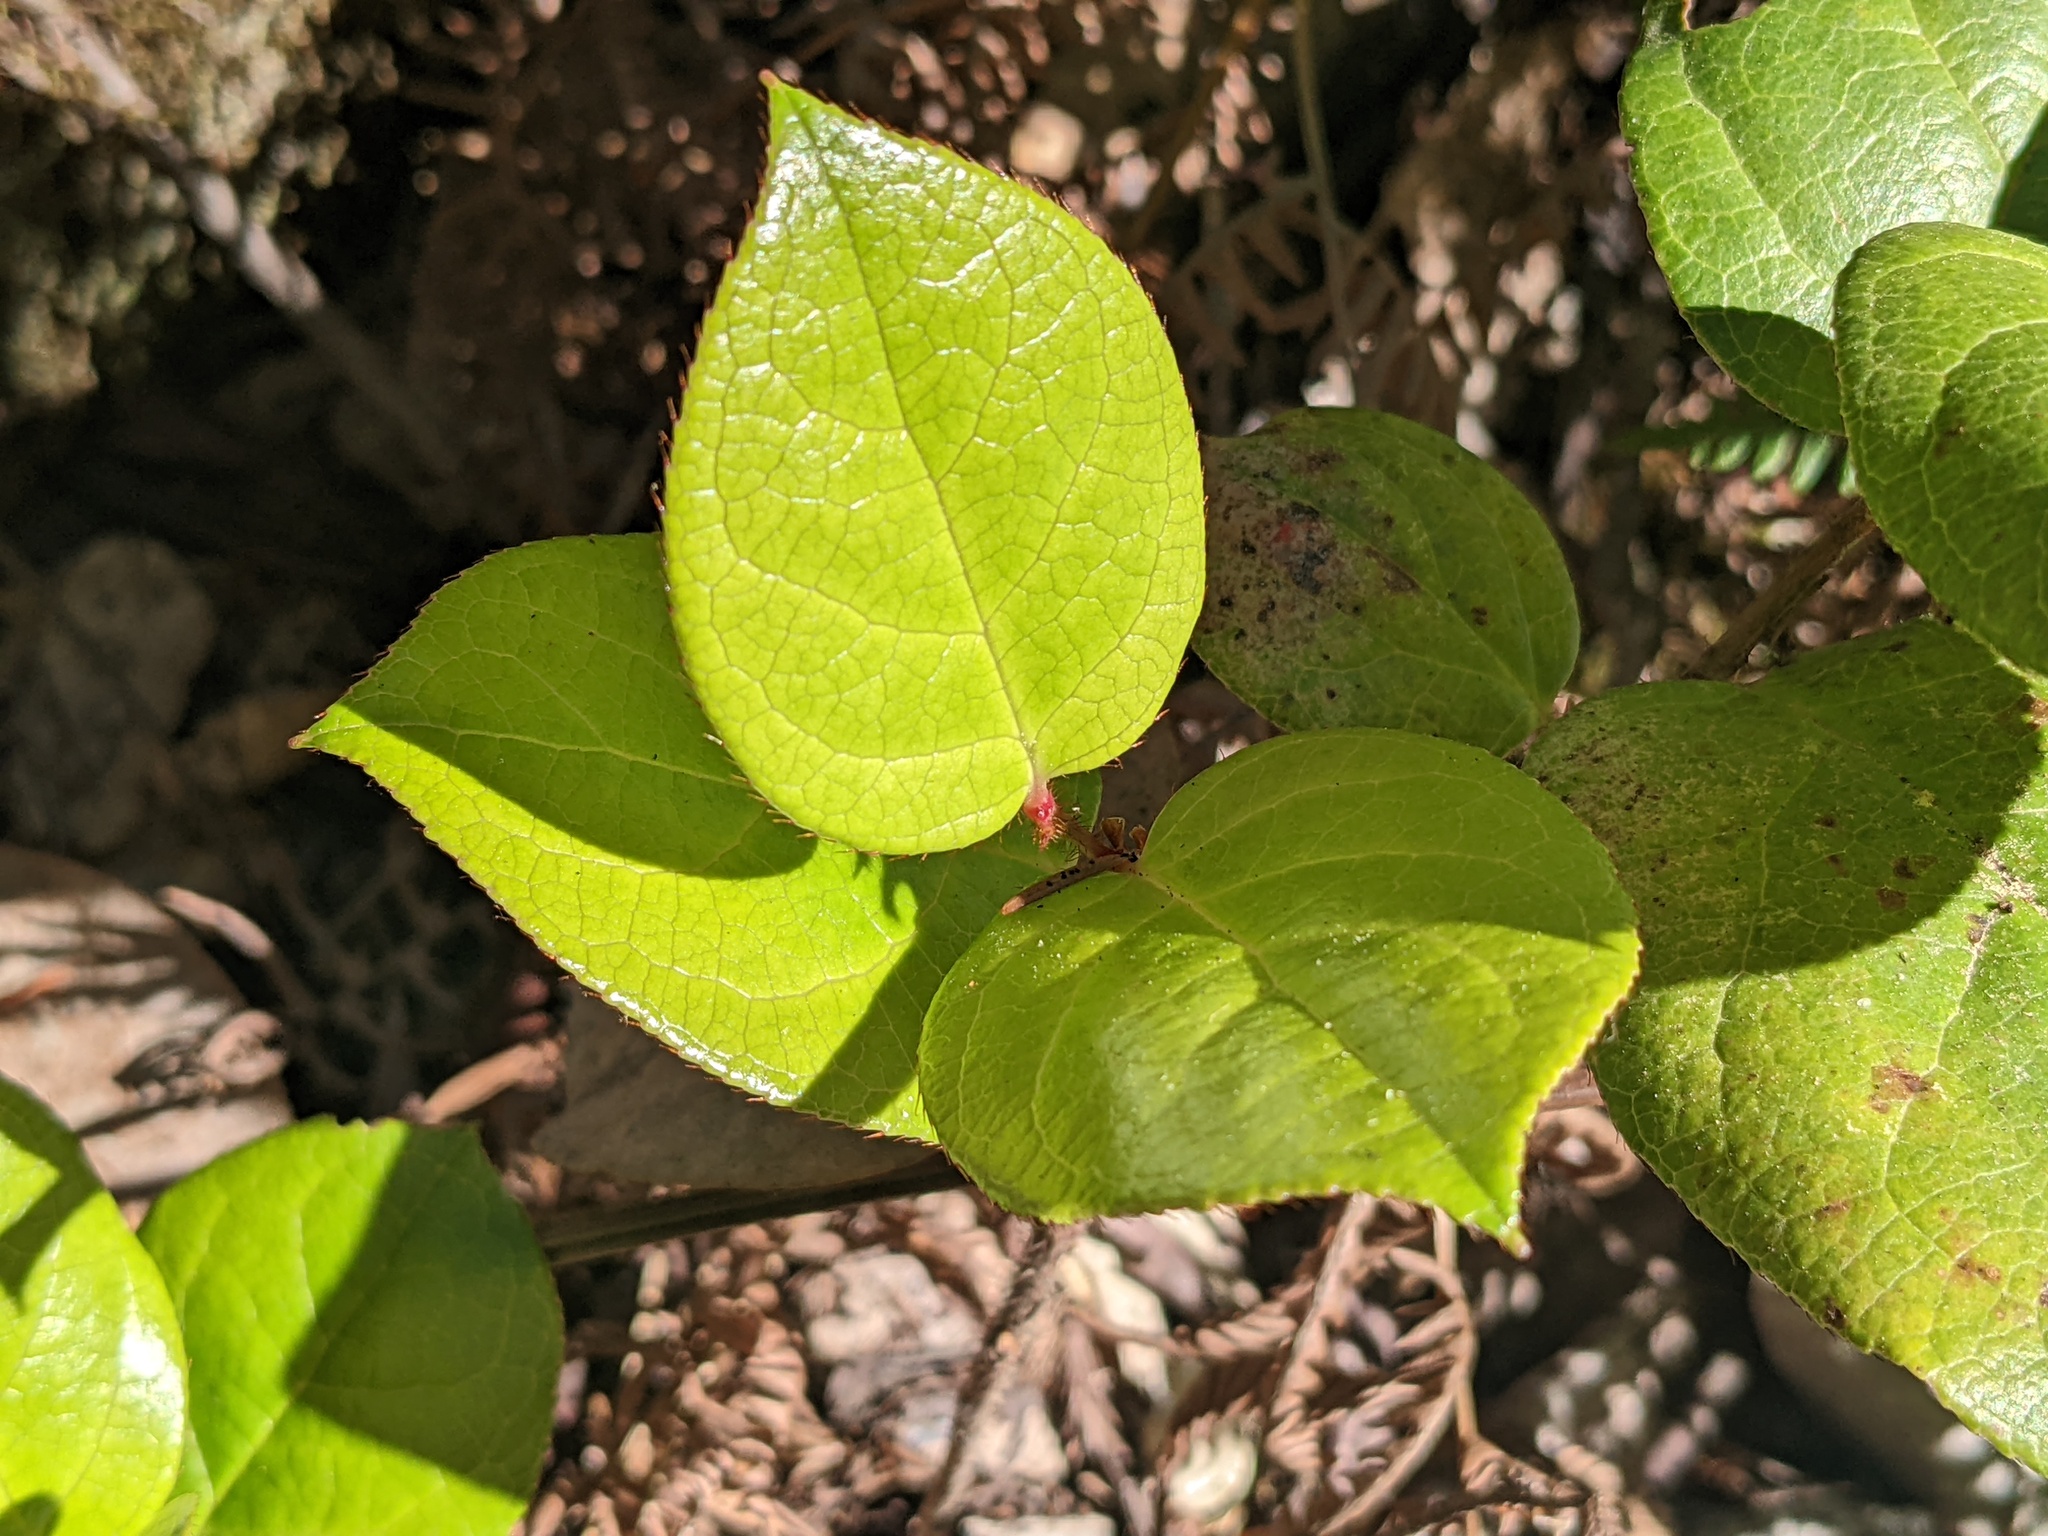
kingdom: Plantae
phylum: Tracheophyta
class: Magnoliopsida
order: Ericales
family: Ericaceae
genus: Gaultheria
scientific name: Gaultheria shallon
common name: Shallon
